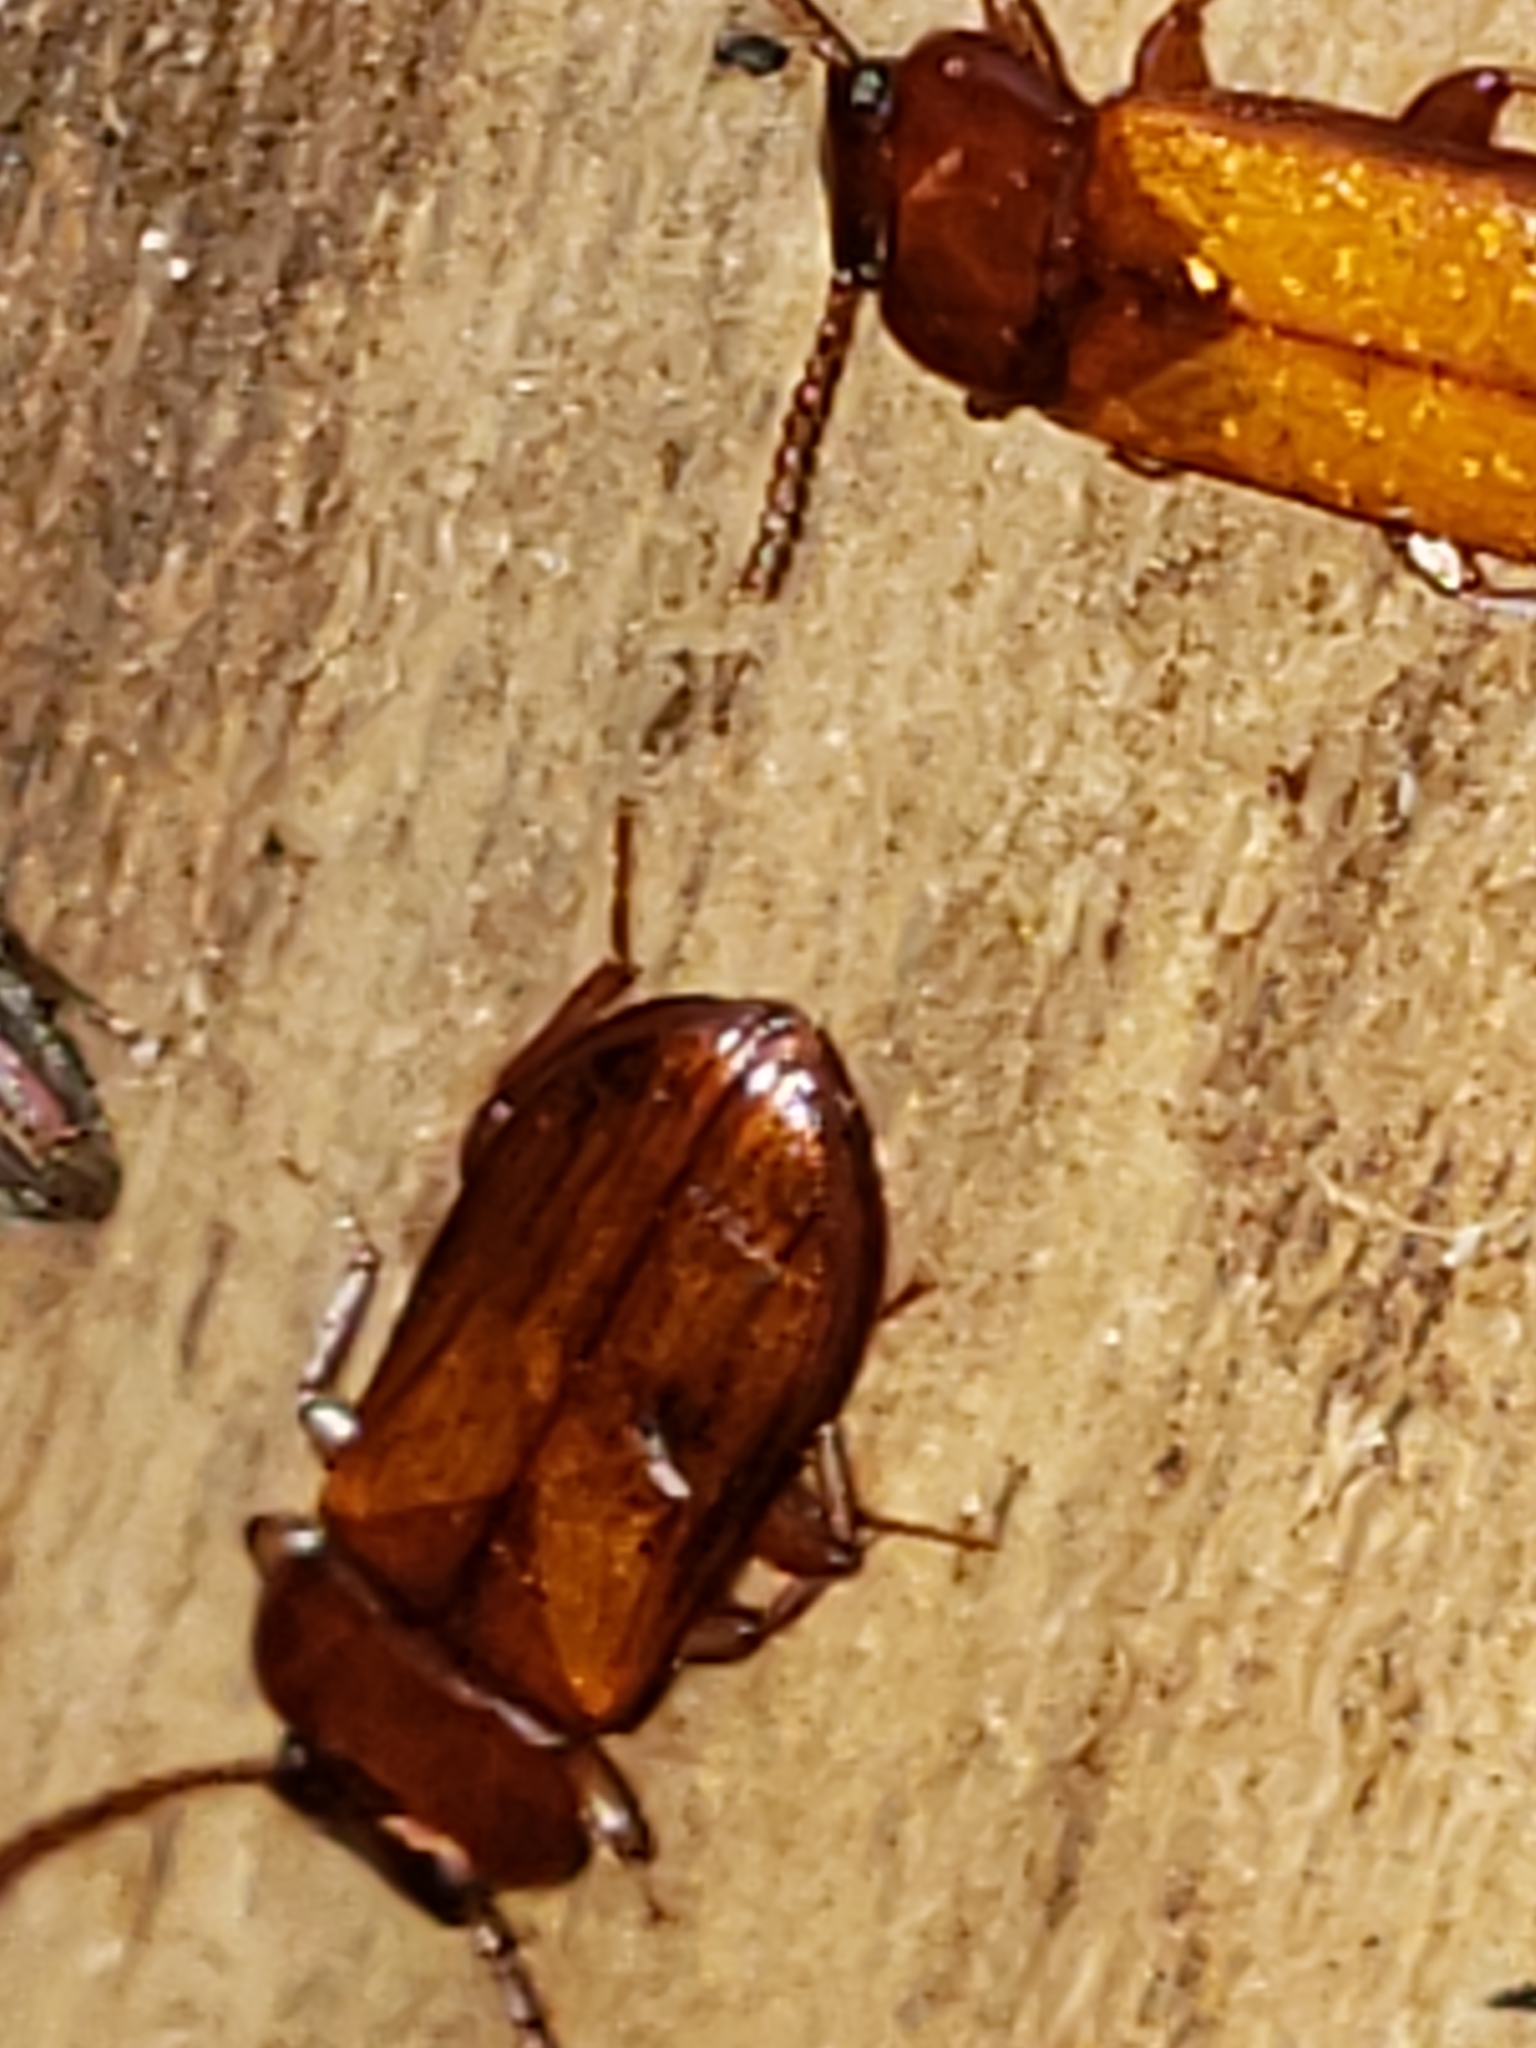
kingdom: Animalia
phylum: Arthropoda
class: Insecta
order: Coleoptera
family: Tenebrionidae
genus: Adelina
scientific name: Adelina pallida
